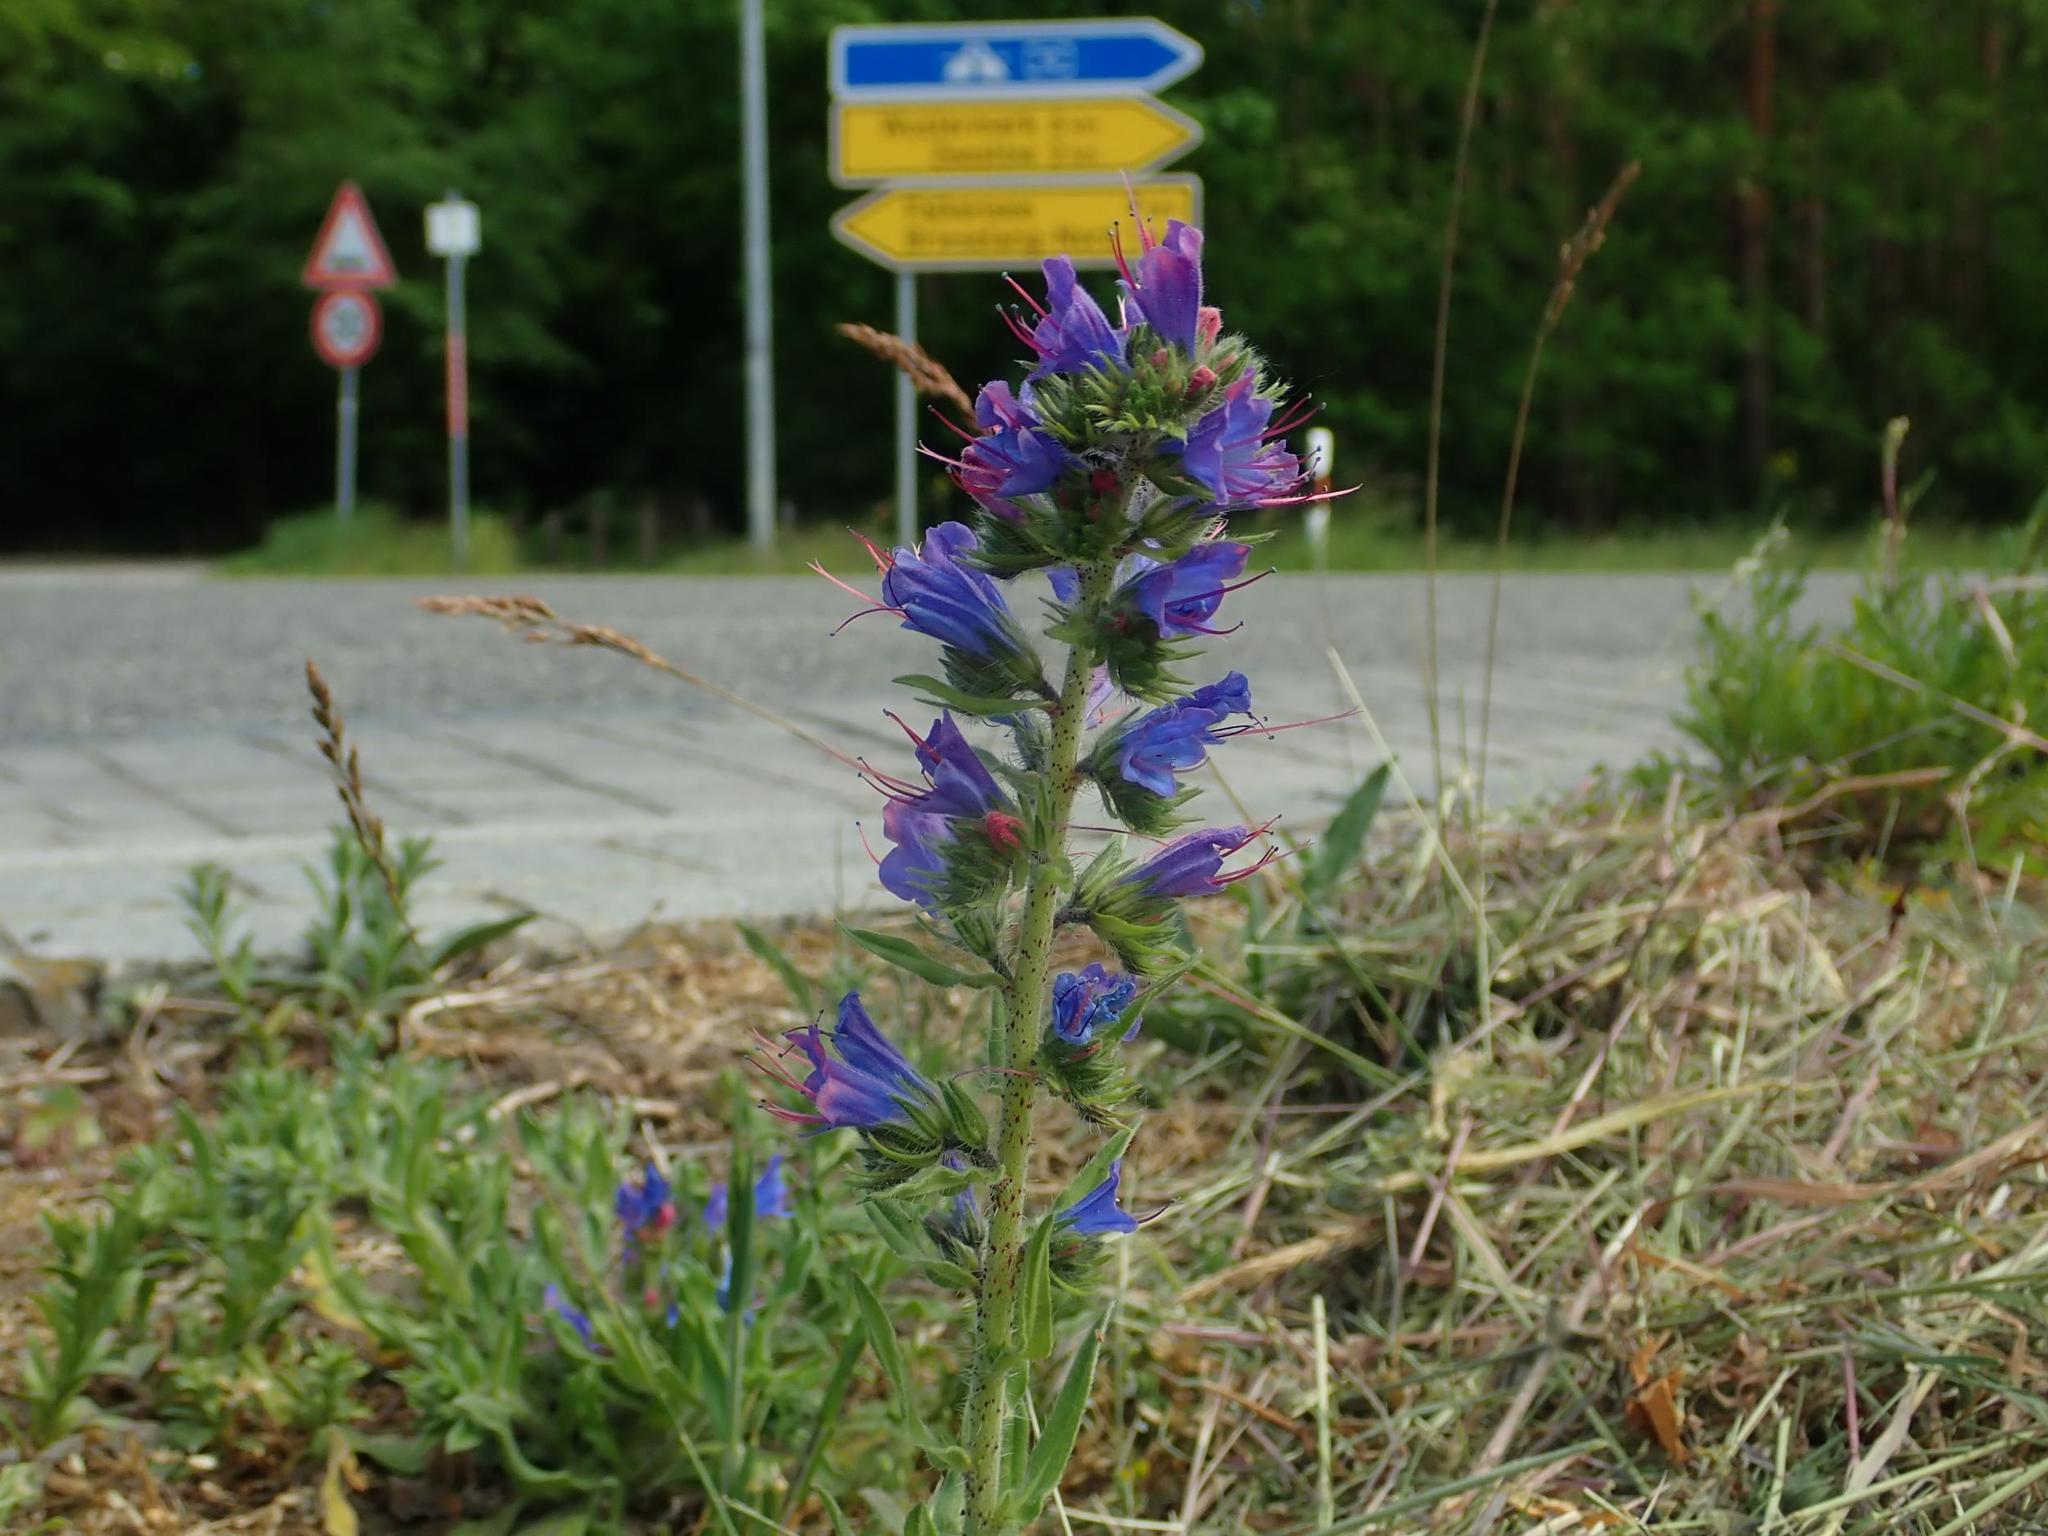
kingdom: Plantae
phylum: Tracheophyta
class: Magnoliopsida
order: Boraginales
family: Boraginaceae
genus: Echium
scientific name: Echium vulgare
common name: Common viper's bugloss
